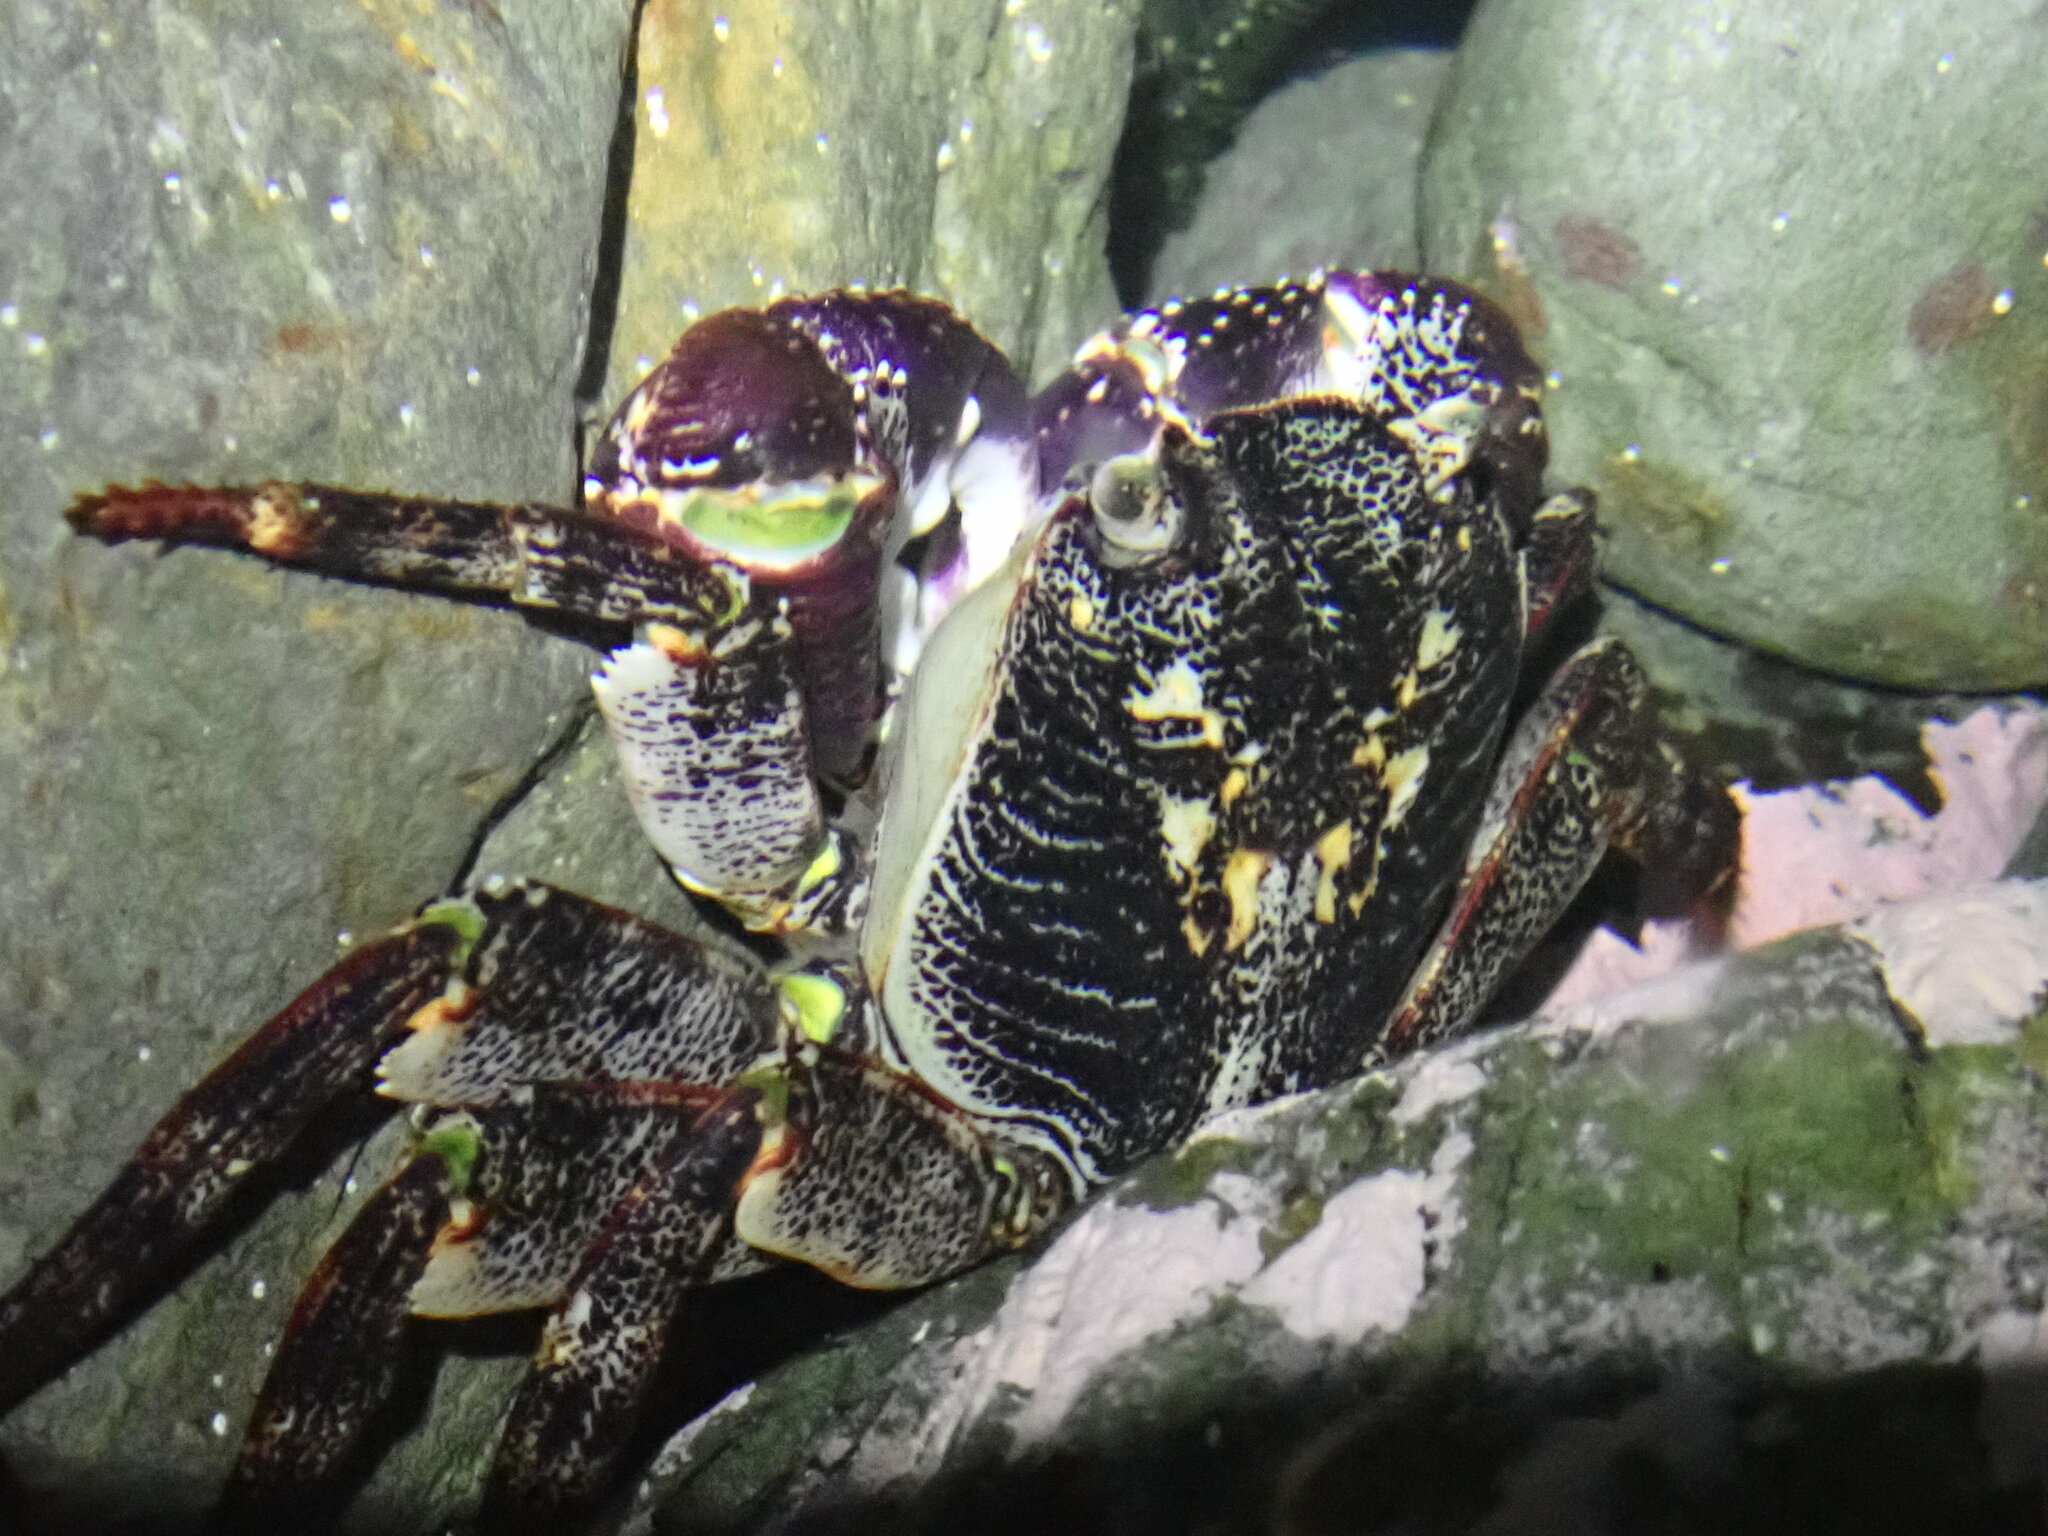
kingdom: Animalia
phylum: Arthropoda
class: Malacostraca
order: Decapoda
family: Grapsidae
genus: Leptograpsus
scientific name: Leptograpsus variegatus
